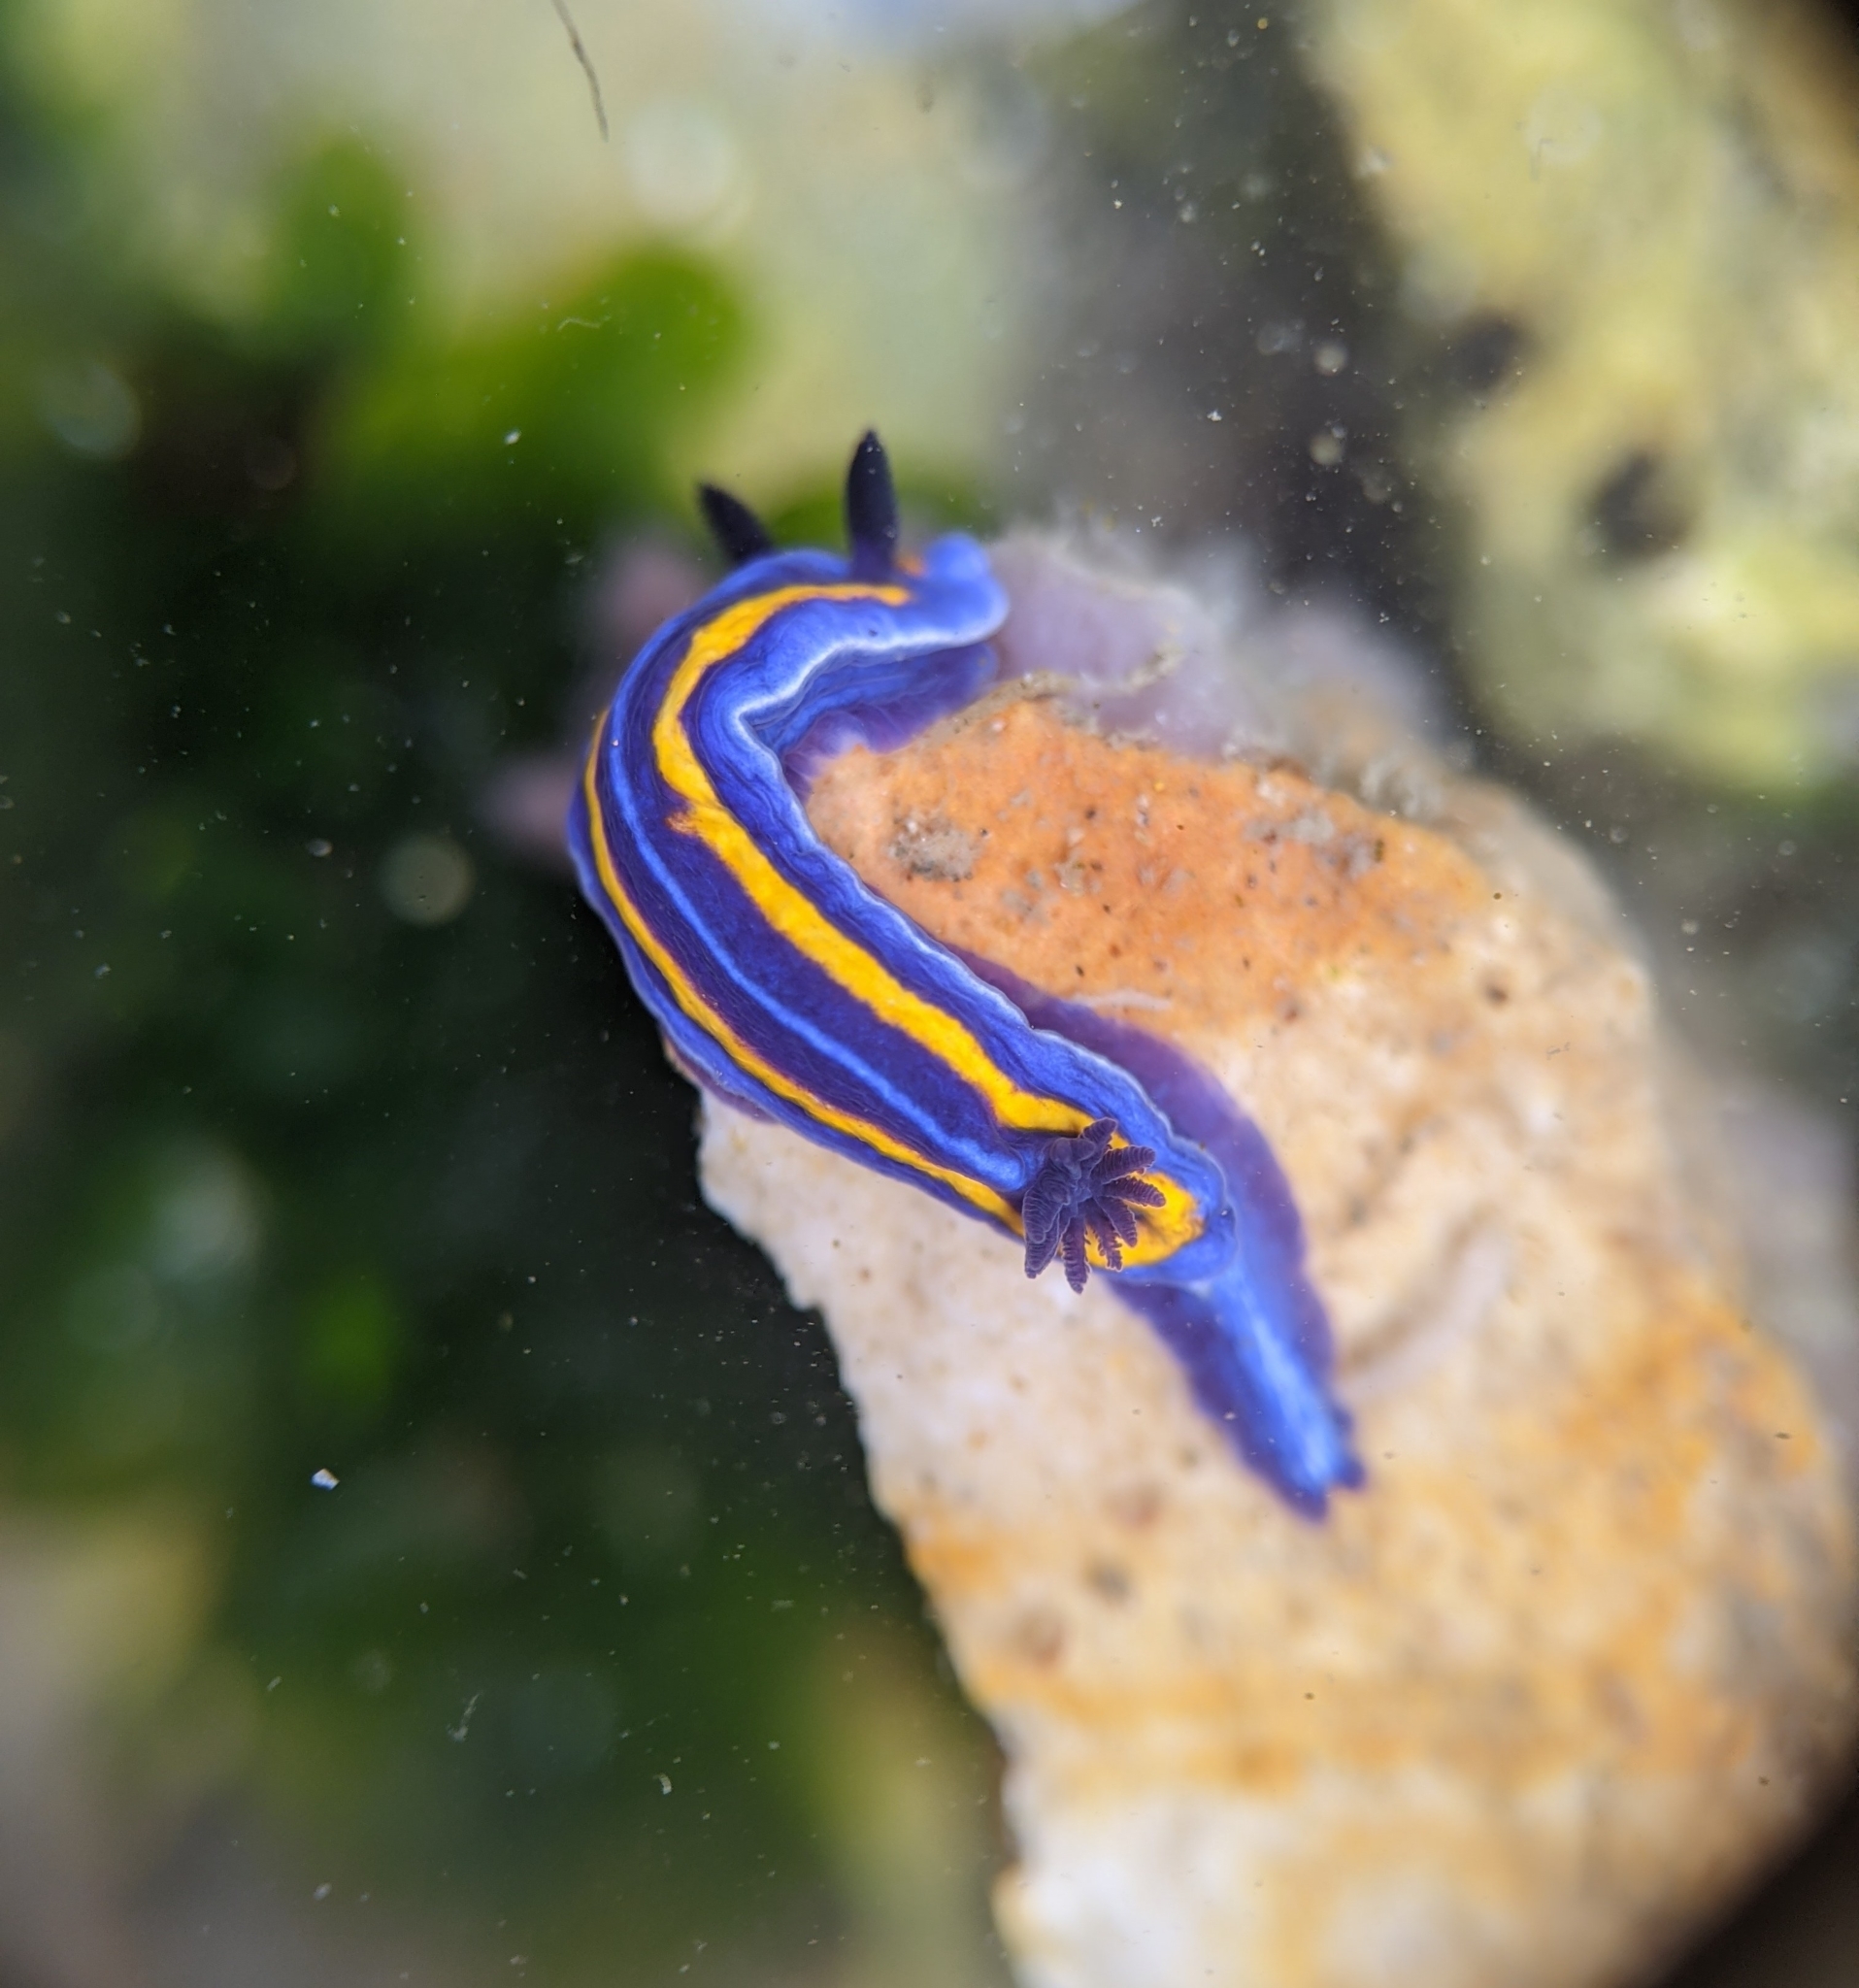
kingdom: Animalia
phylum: Mollusca
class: Gastropoda
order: Nudibranchia
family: Chromodorididae
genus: Felimare
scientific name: Felimare porterae
